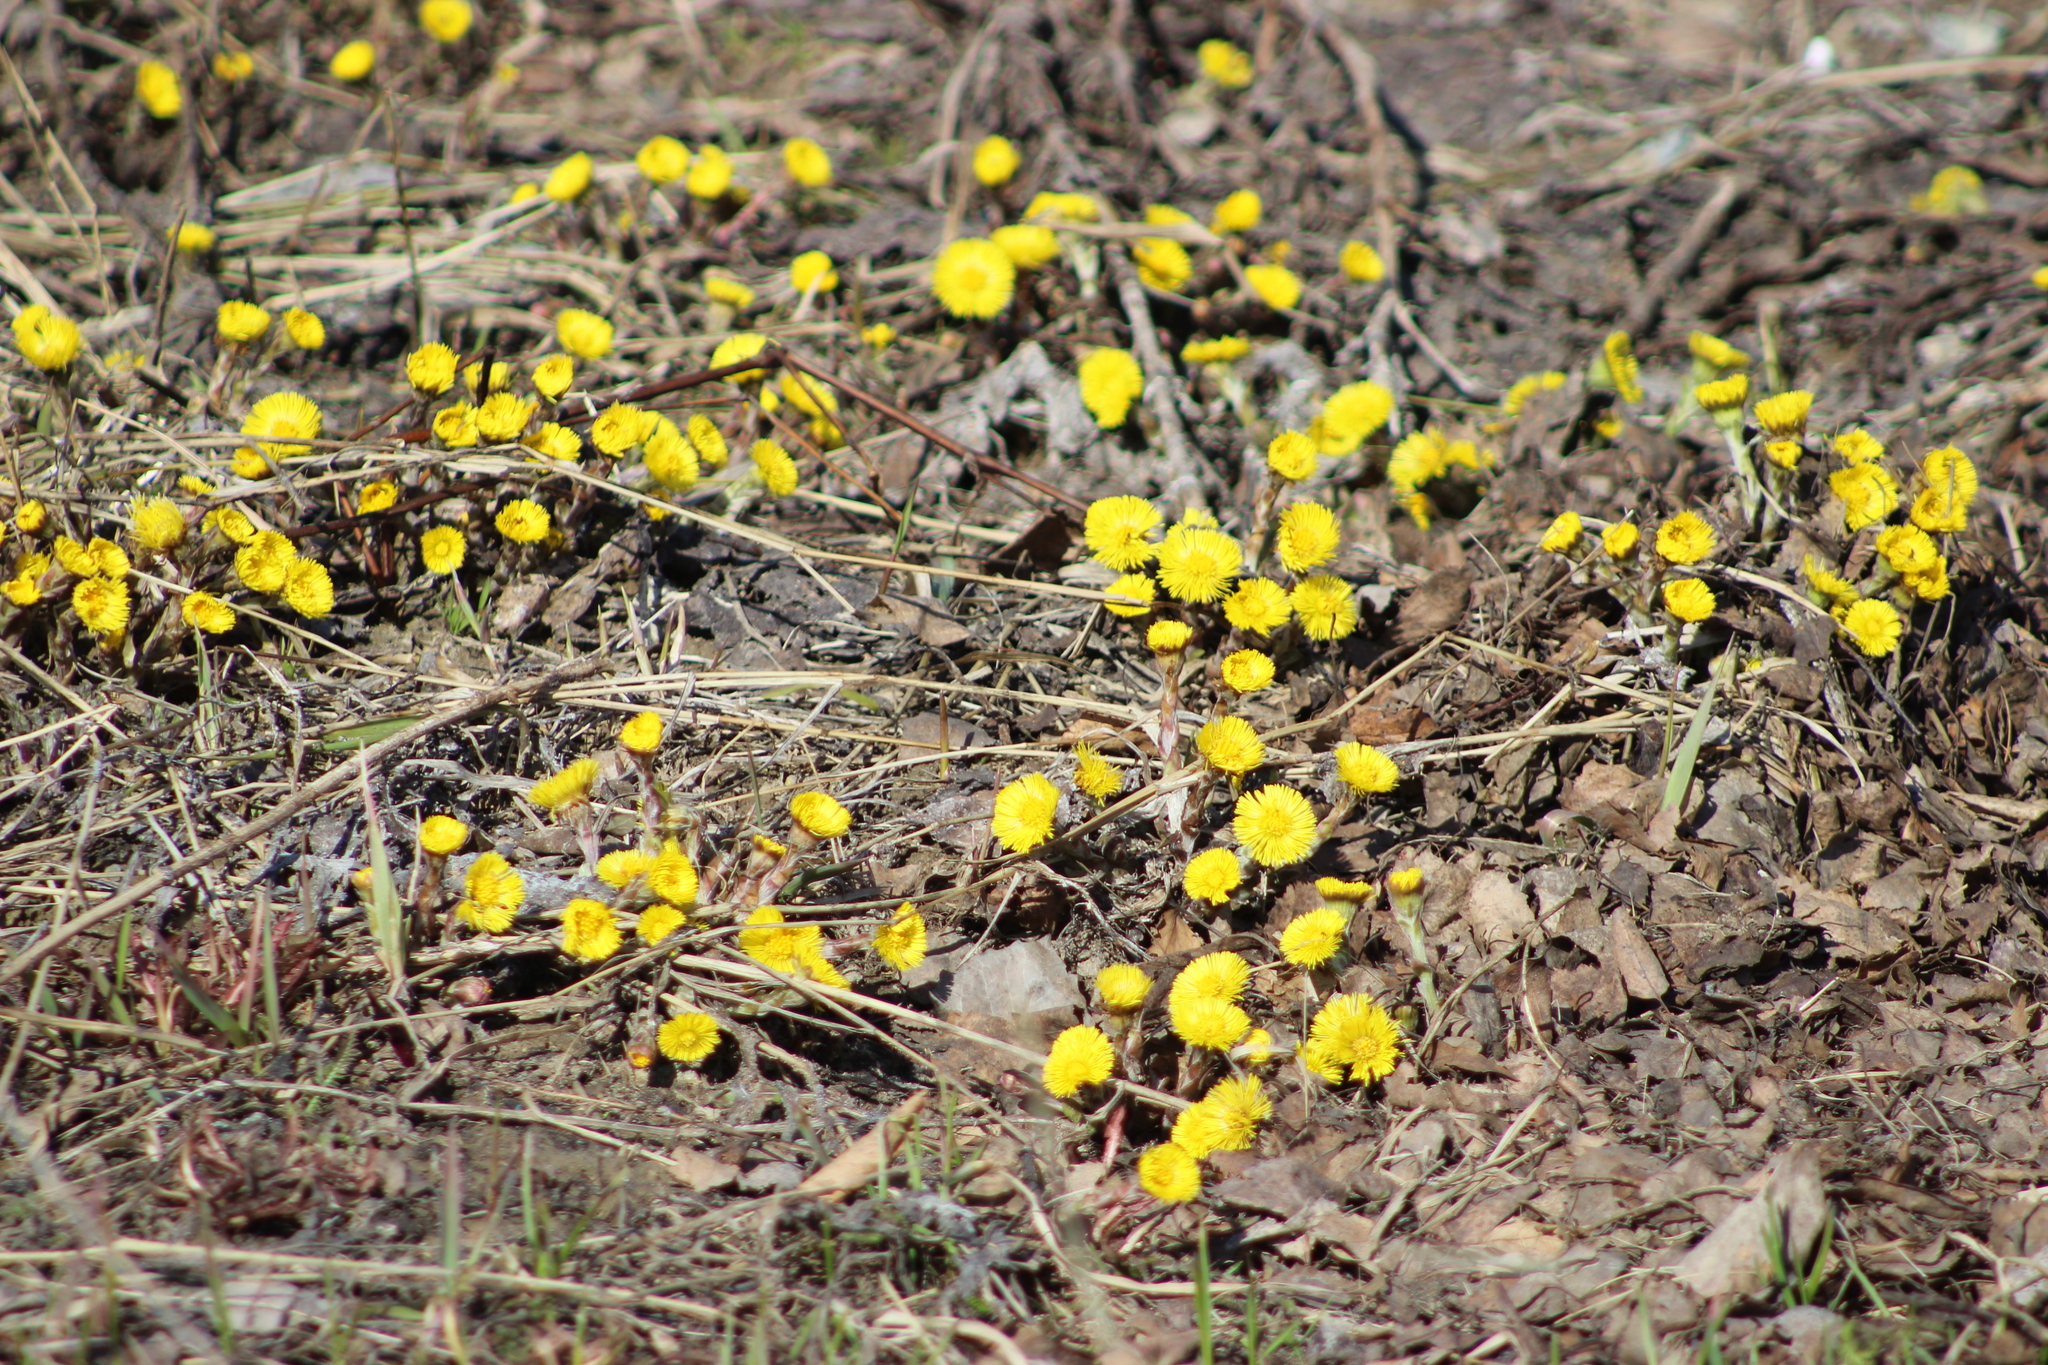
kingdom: Plantae
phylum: Tracheophyta
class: Magnoliopsida
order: Asterales
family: Asteraceae
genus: Tussilago
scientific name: Tussilago farfara
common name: Coltsfoot
